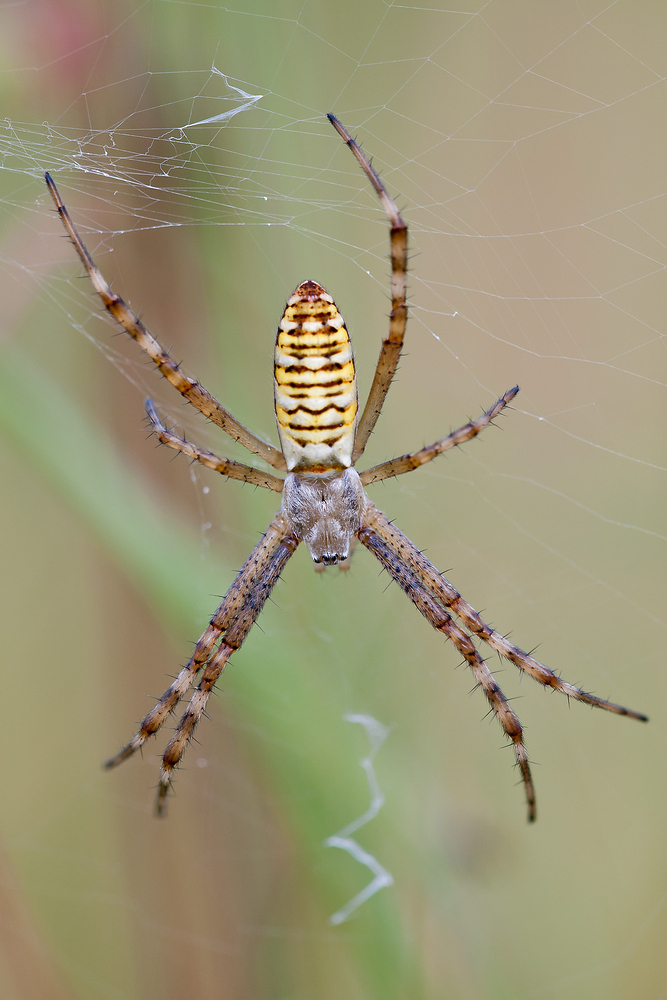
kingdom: Animalia
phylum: Arthropoda
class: Arachnida
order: Araneae
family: Araneidae
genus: Argiope
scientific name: Argiope bruennichi
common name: Wasp spider
